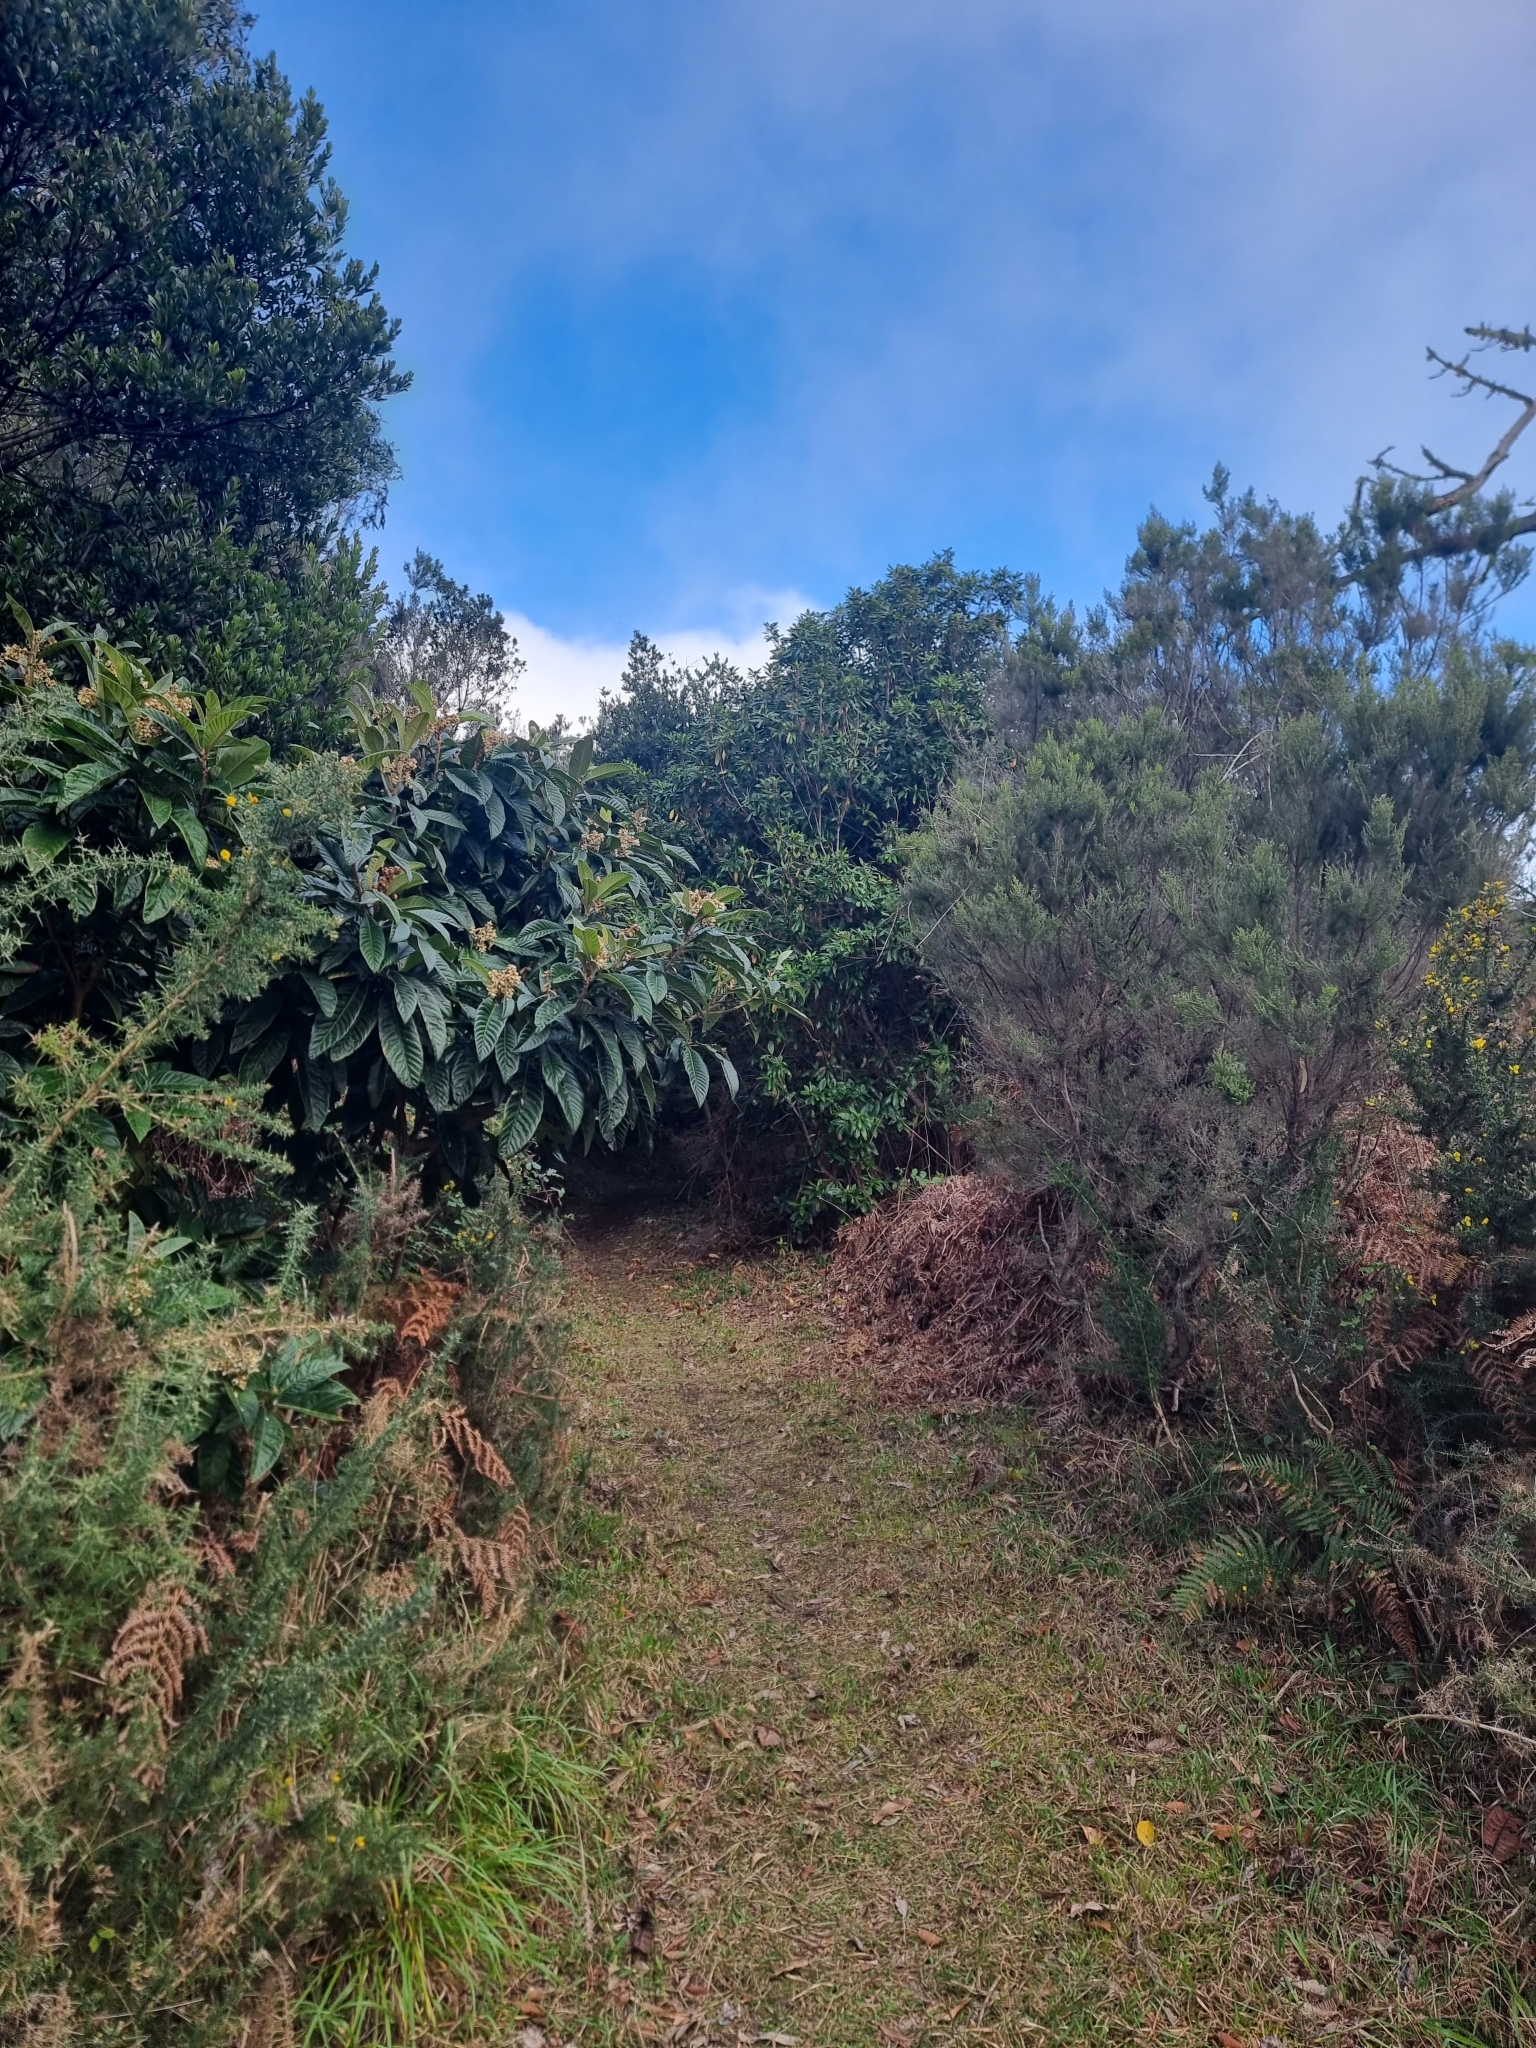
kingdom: Plantae
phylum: Tracheophyta
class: Magnoliopsida
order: Rosales
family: Rosaceae
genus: Rhaphiolepis
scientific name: Rhaphiolepis bibas
